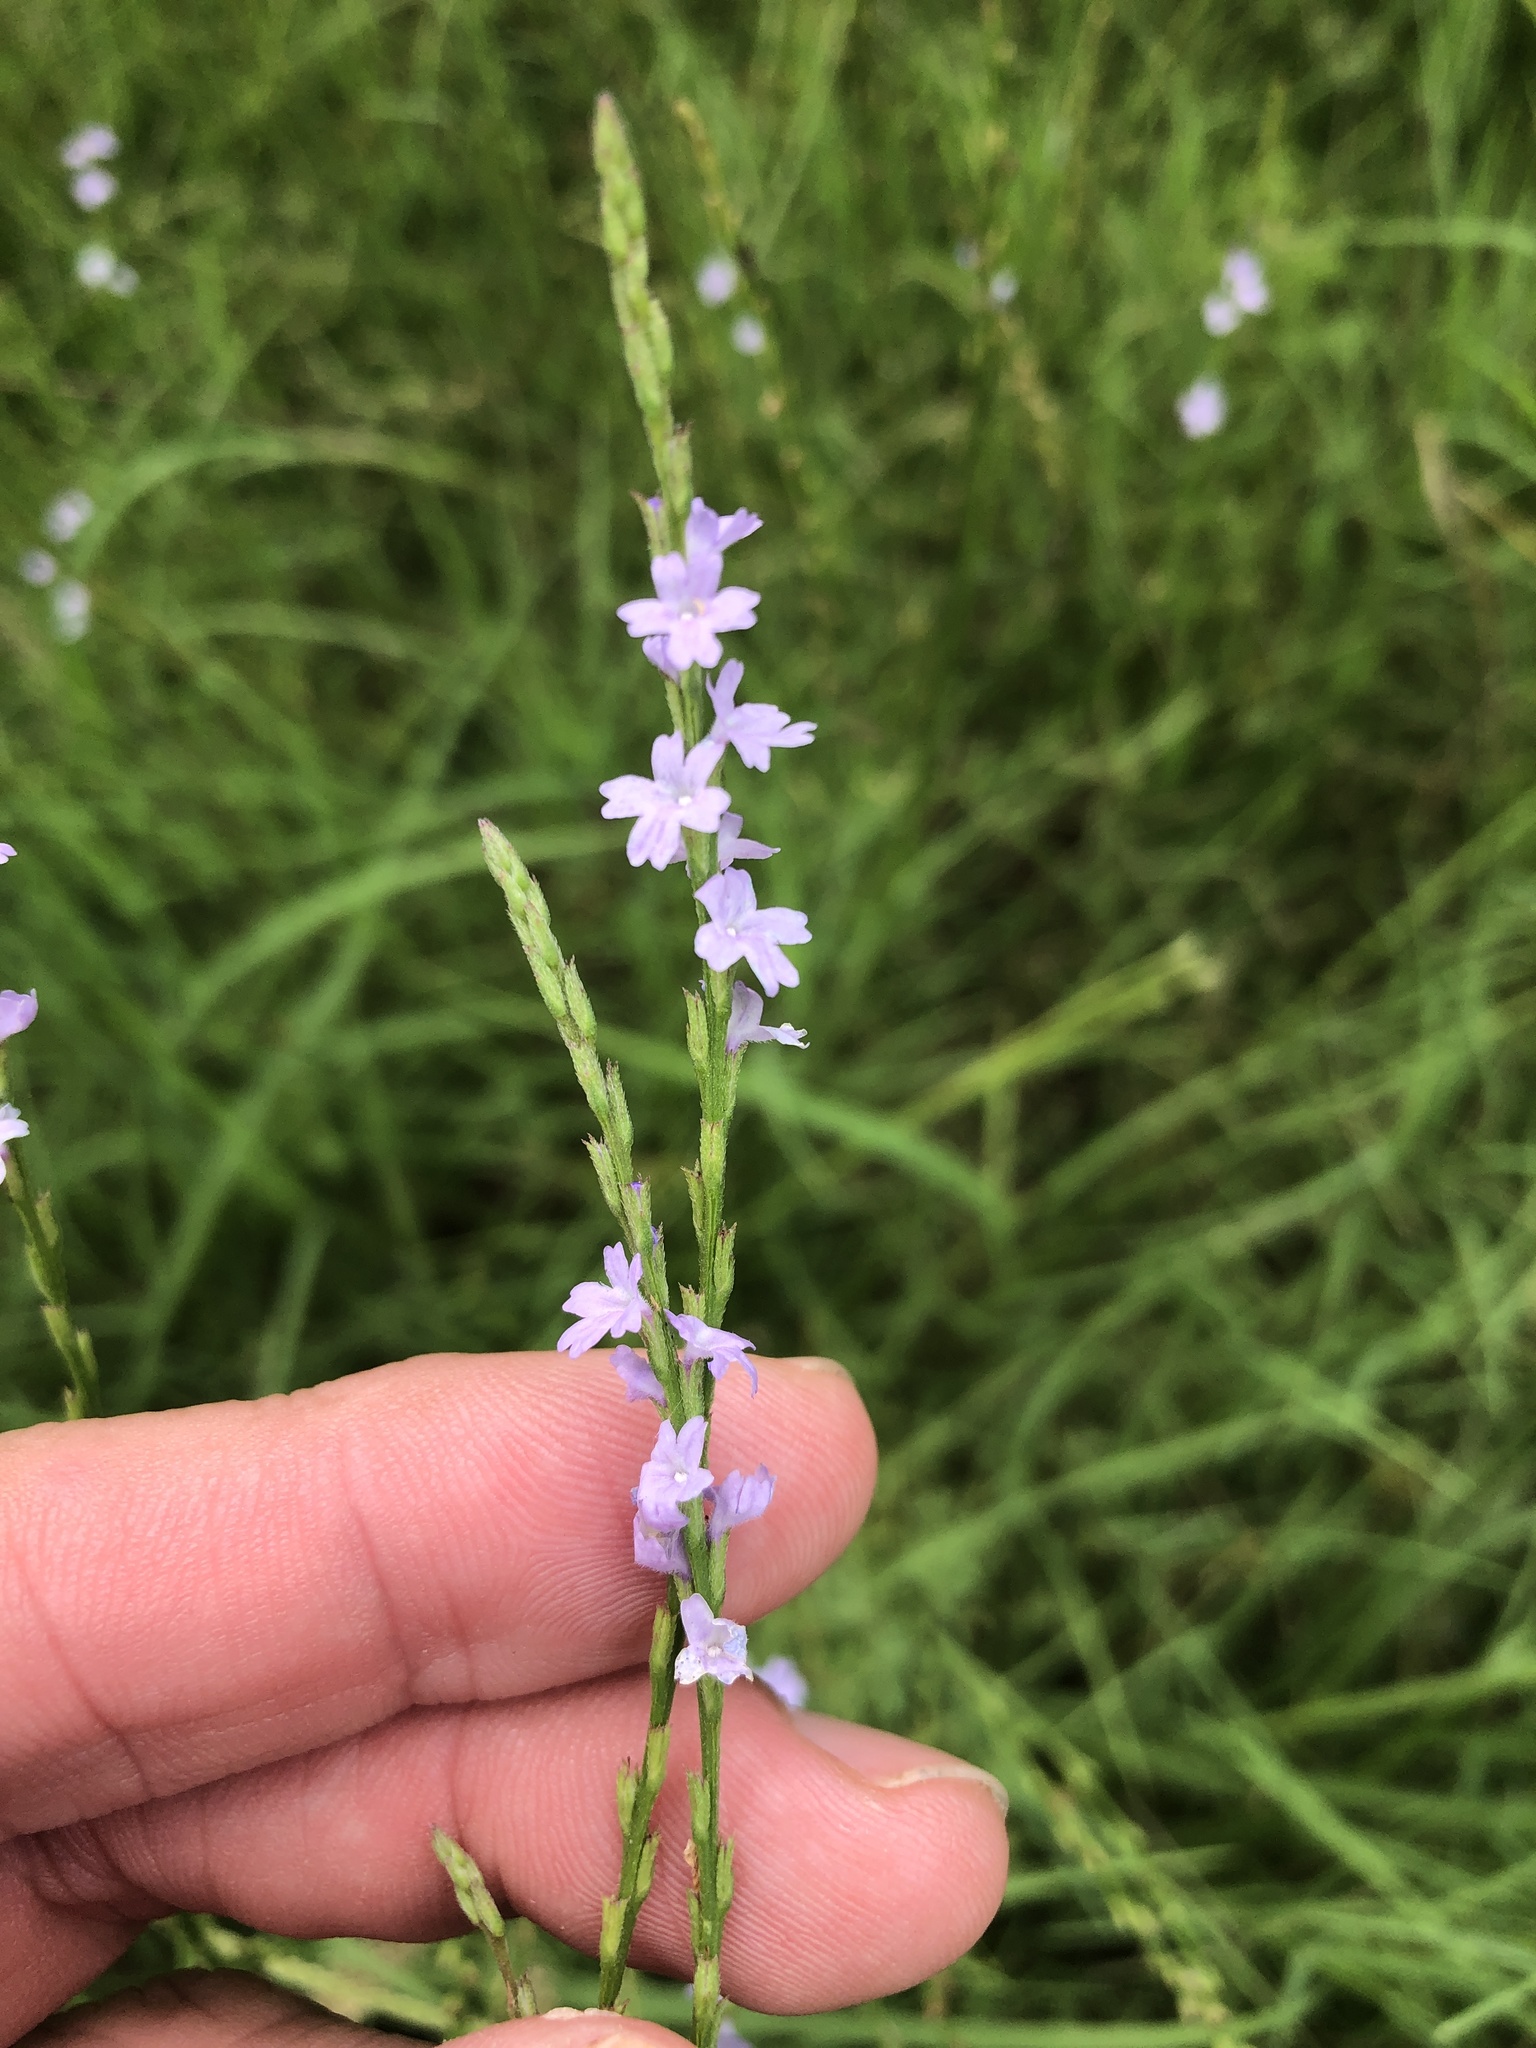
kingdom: Plantae
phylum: Tracheophyta
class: Magnoliopsida
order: Lamiales
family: Verbenaceae
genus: Verbena
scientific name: Verbena halei
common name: Texas vervain
